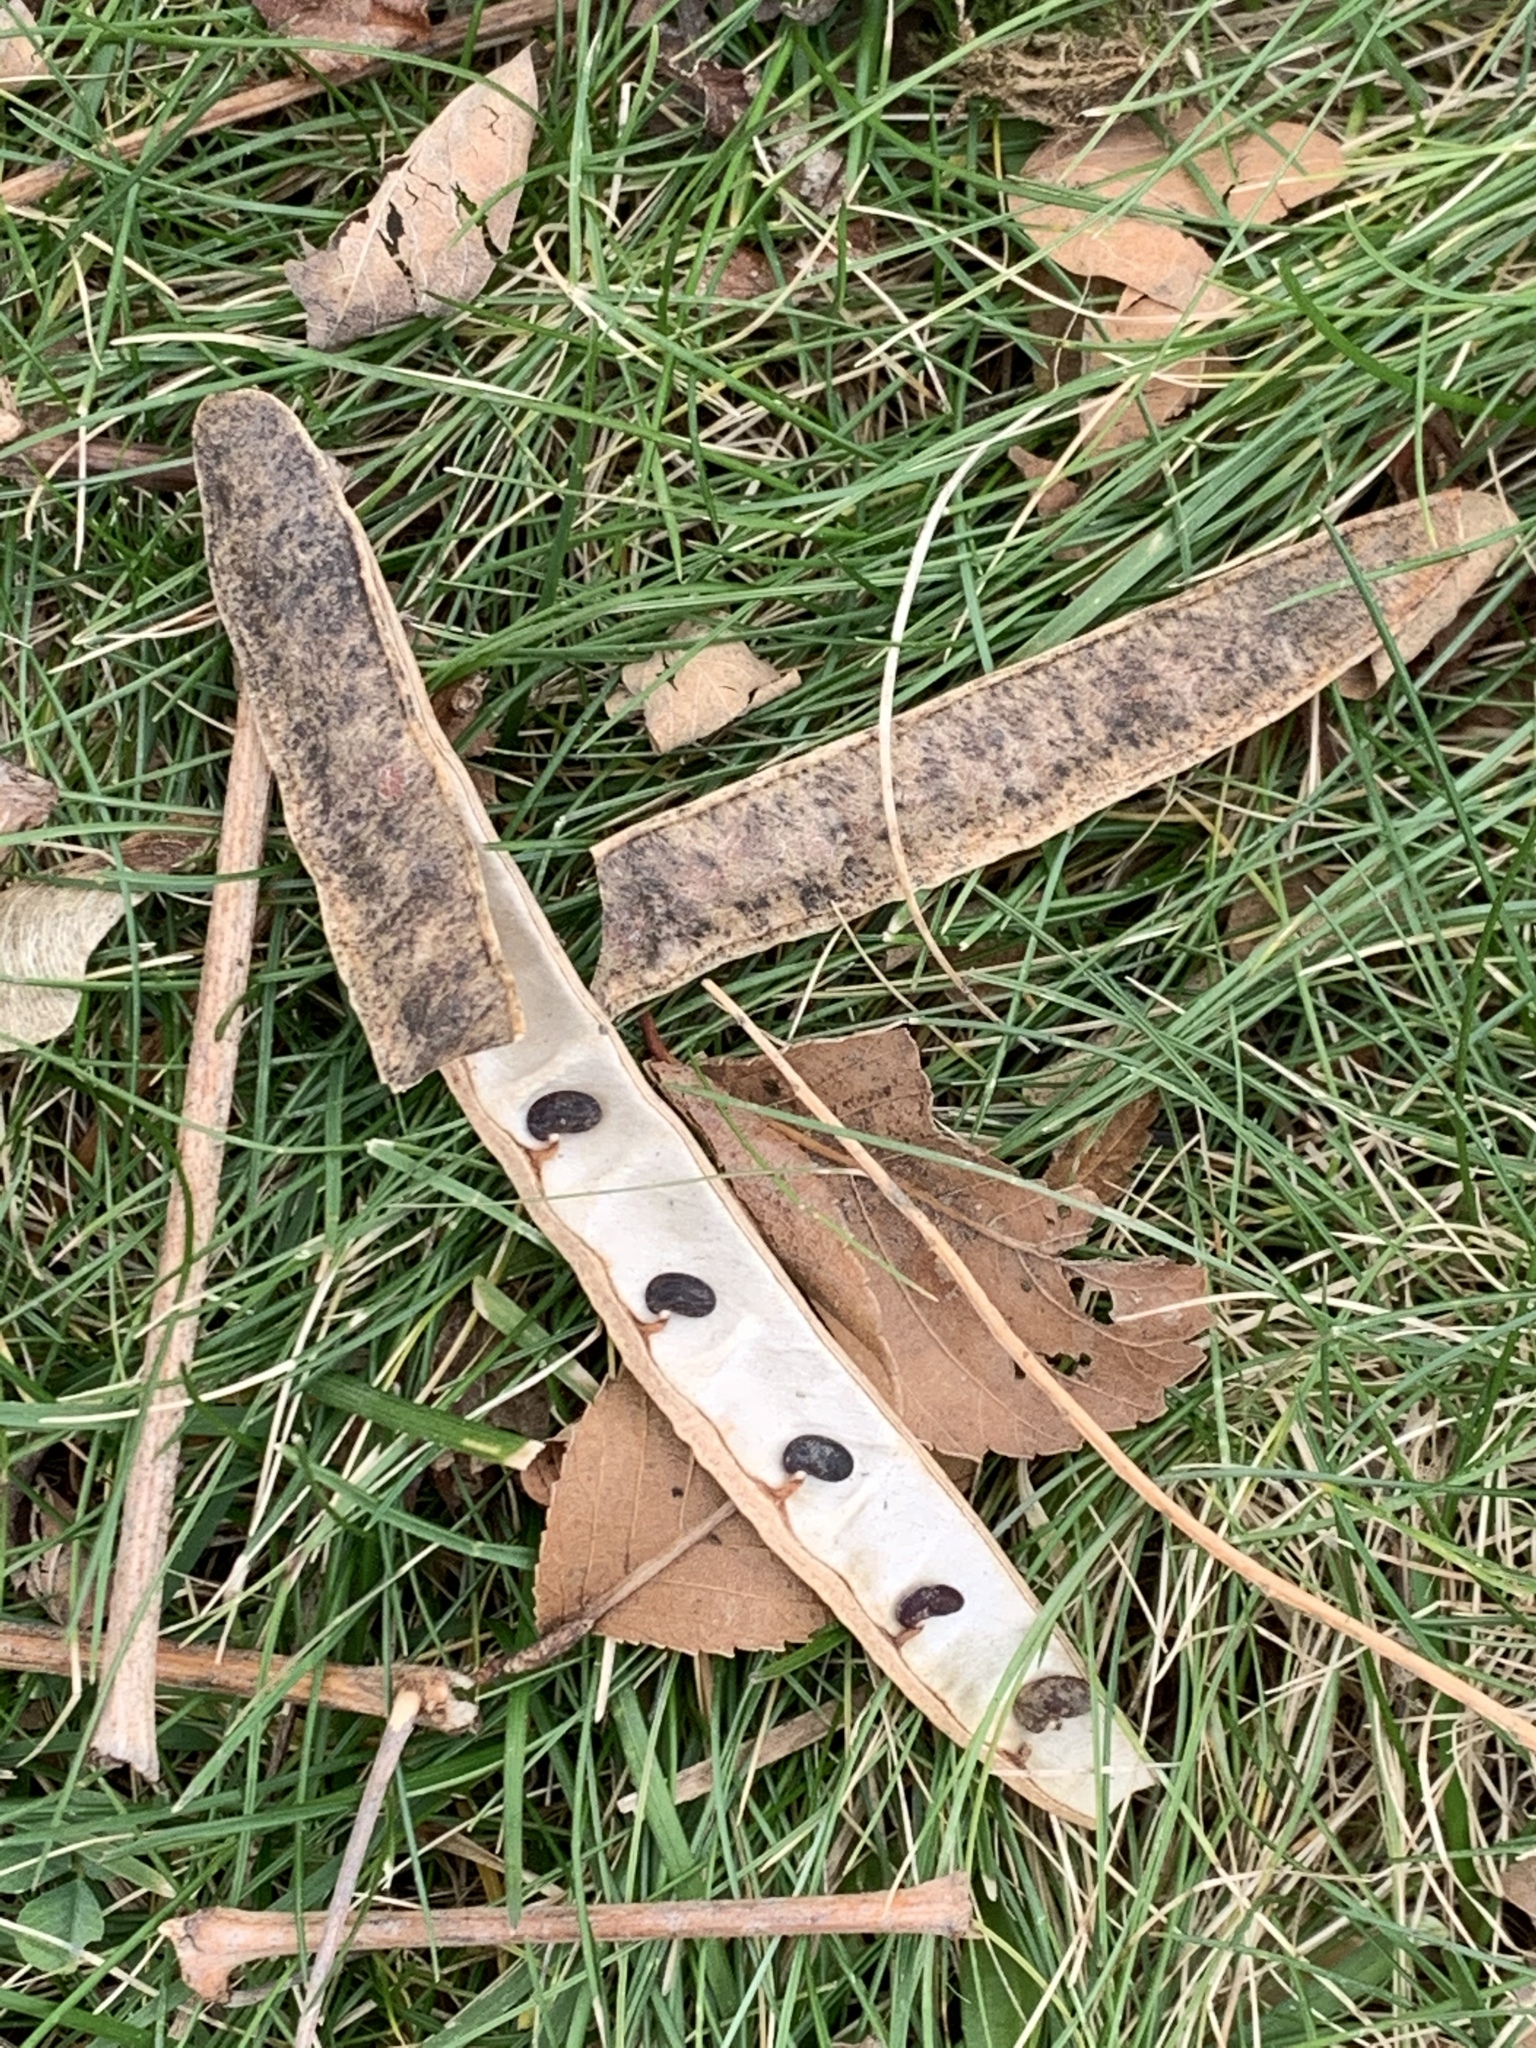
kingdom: Plantae
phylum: Tracheophyta
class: Magnoliopsida
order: Fabales
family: Fabaceae
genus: Robinia
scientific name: Robinia pseudoacacia
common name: Black locust
